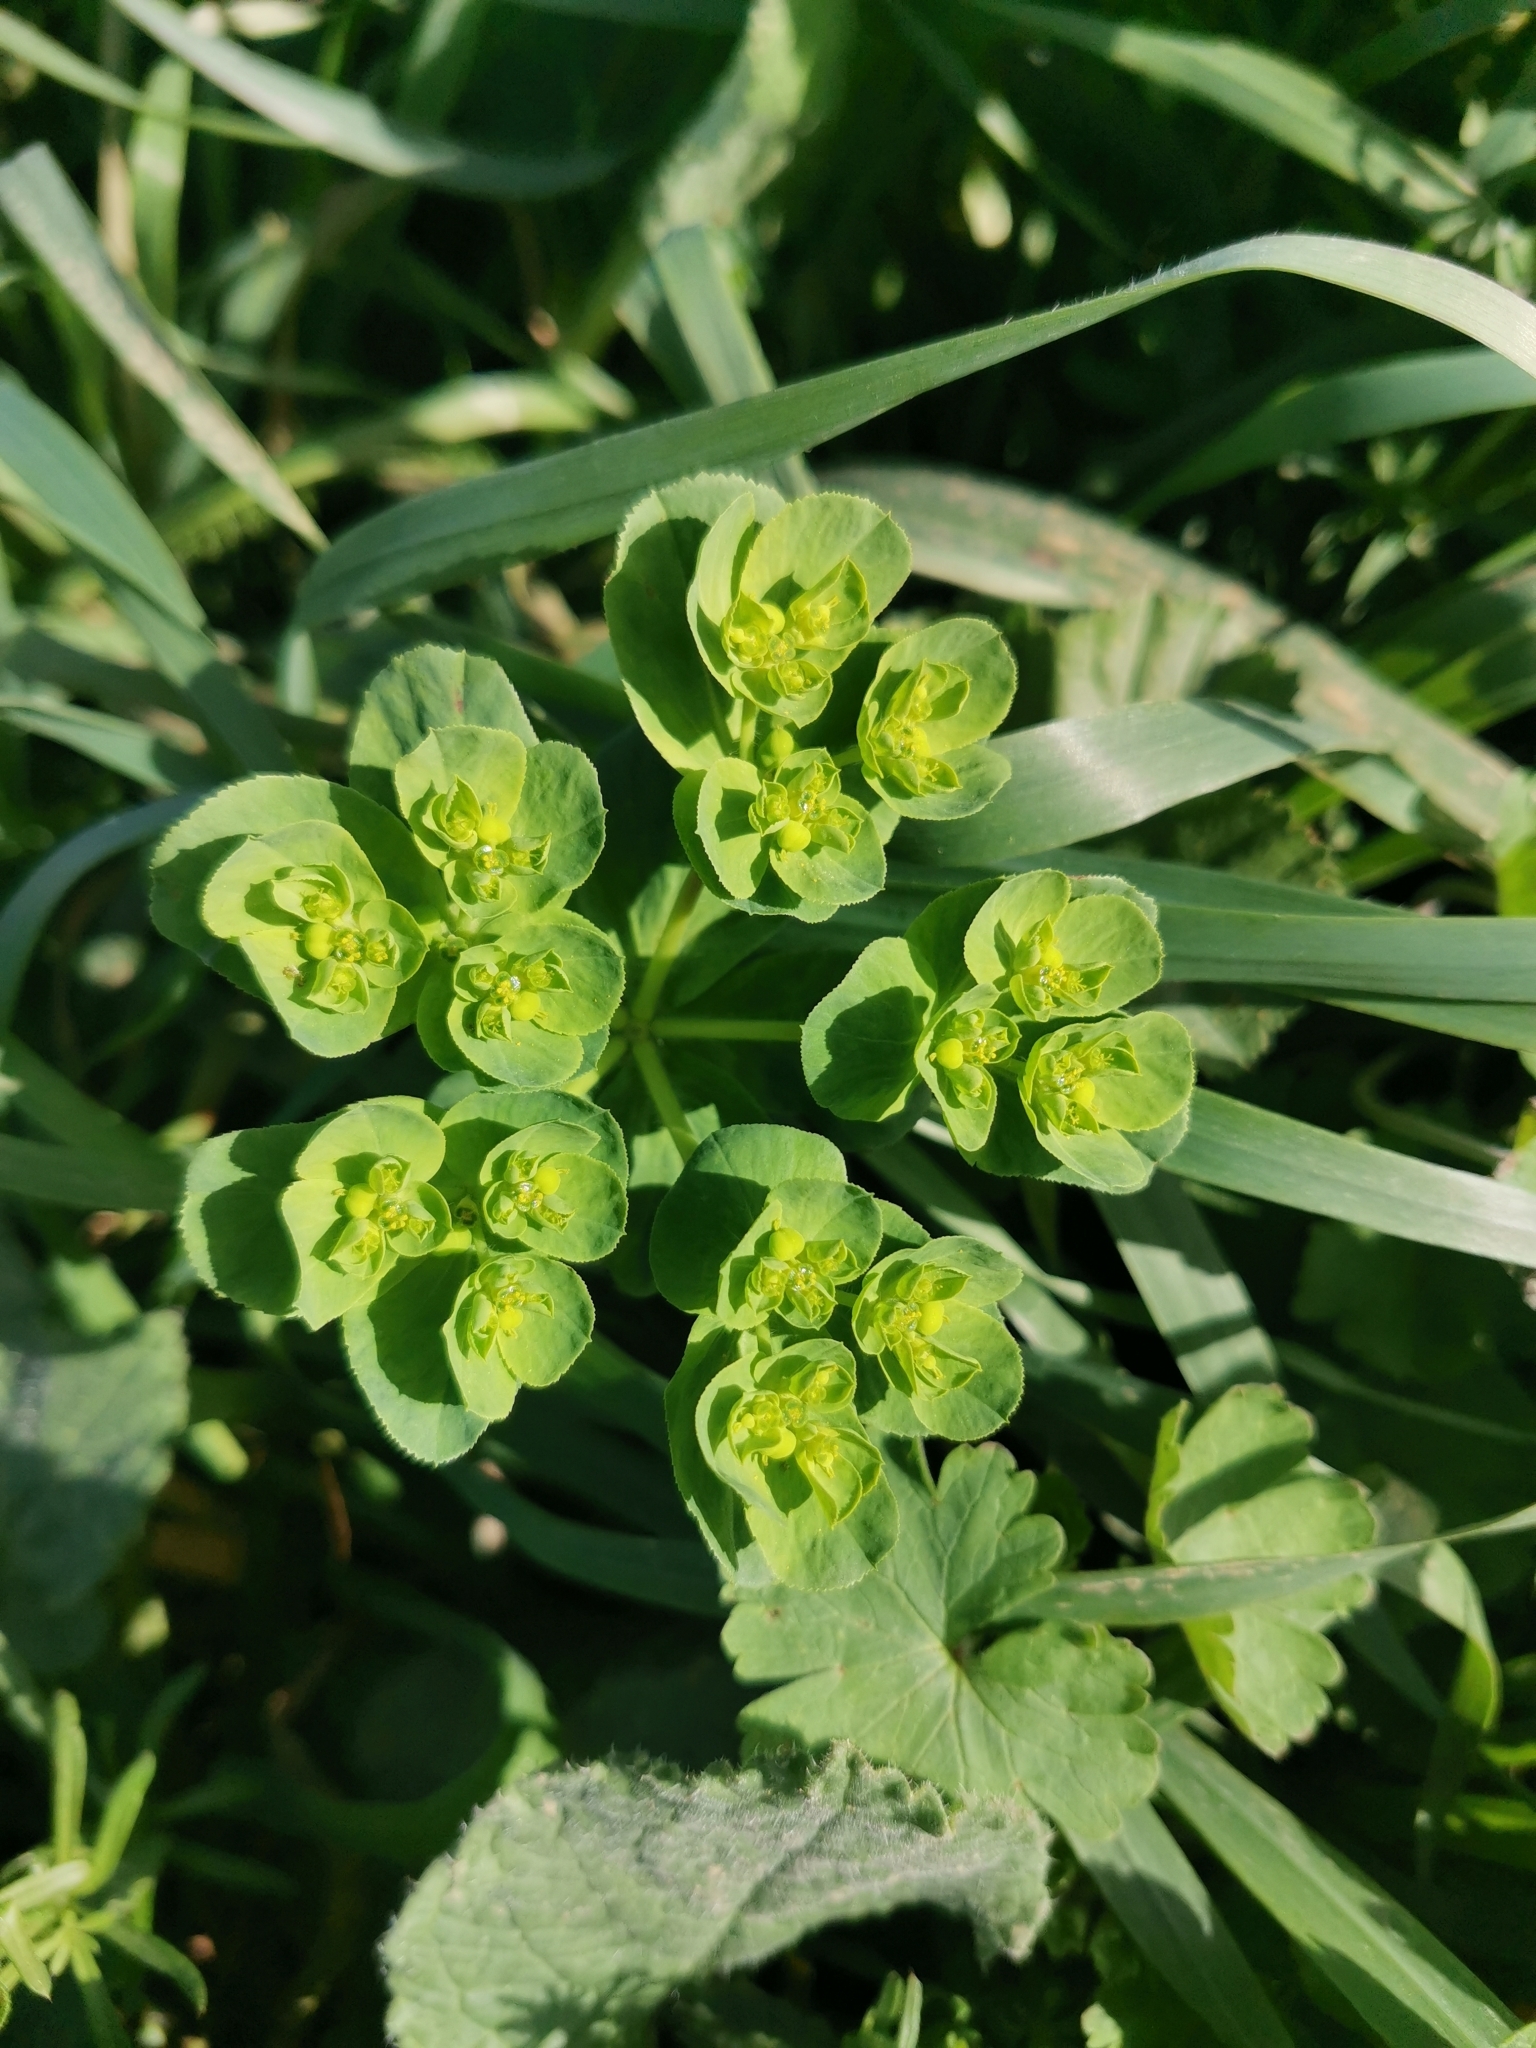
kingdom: Plantae
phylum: Tracheophyta
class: Magnoliopsida
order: Malpighiales
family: Euphorbiaceae
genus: Euphorbia
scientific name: Euphorbia helioscopia
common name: Sun spurge
